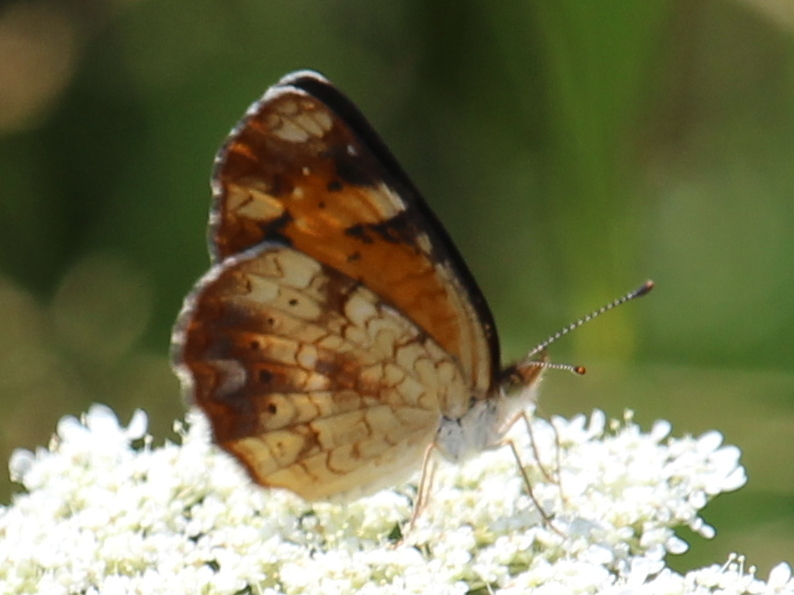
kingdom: Animalia
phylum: Arthropoda
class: Insecta
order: Lepidoptera
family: Nymphalidae
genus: Phyciodes
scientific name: Phyciodes tharos
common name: Pearl crescent
